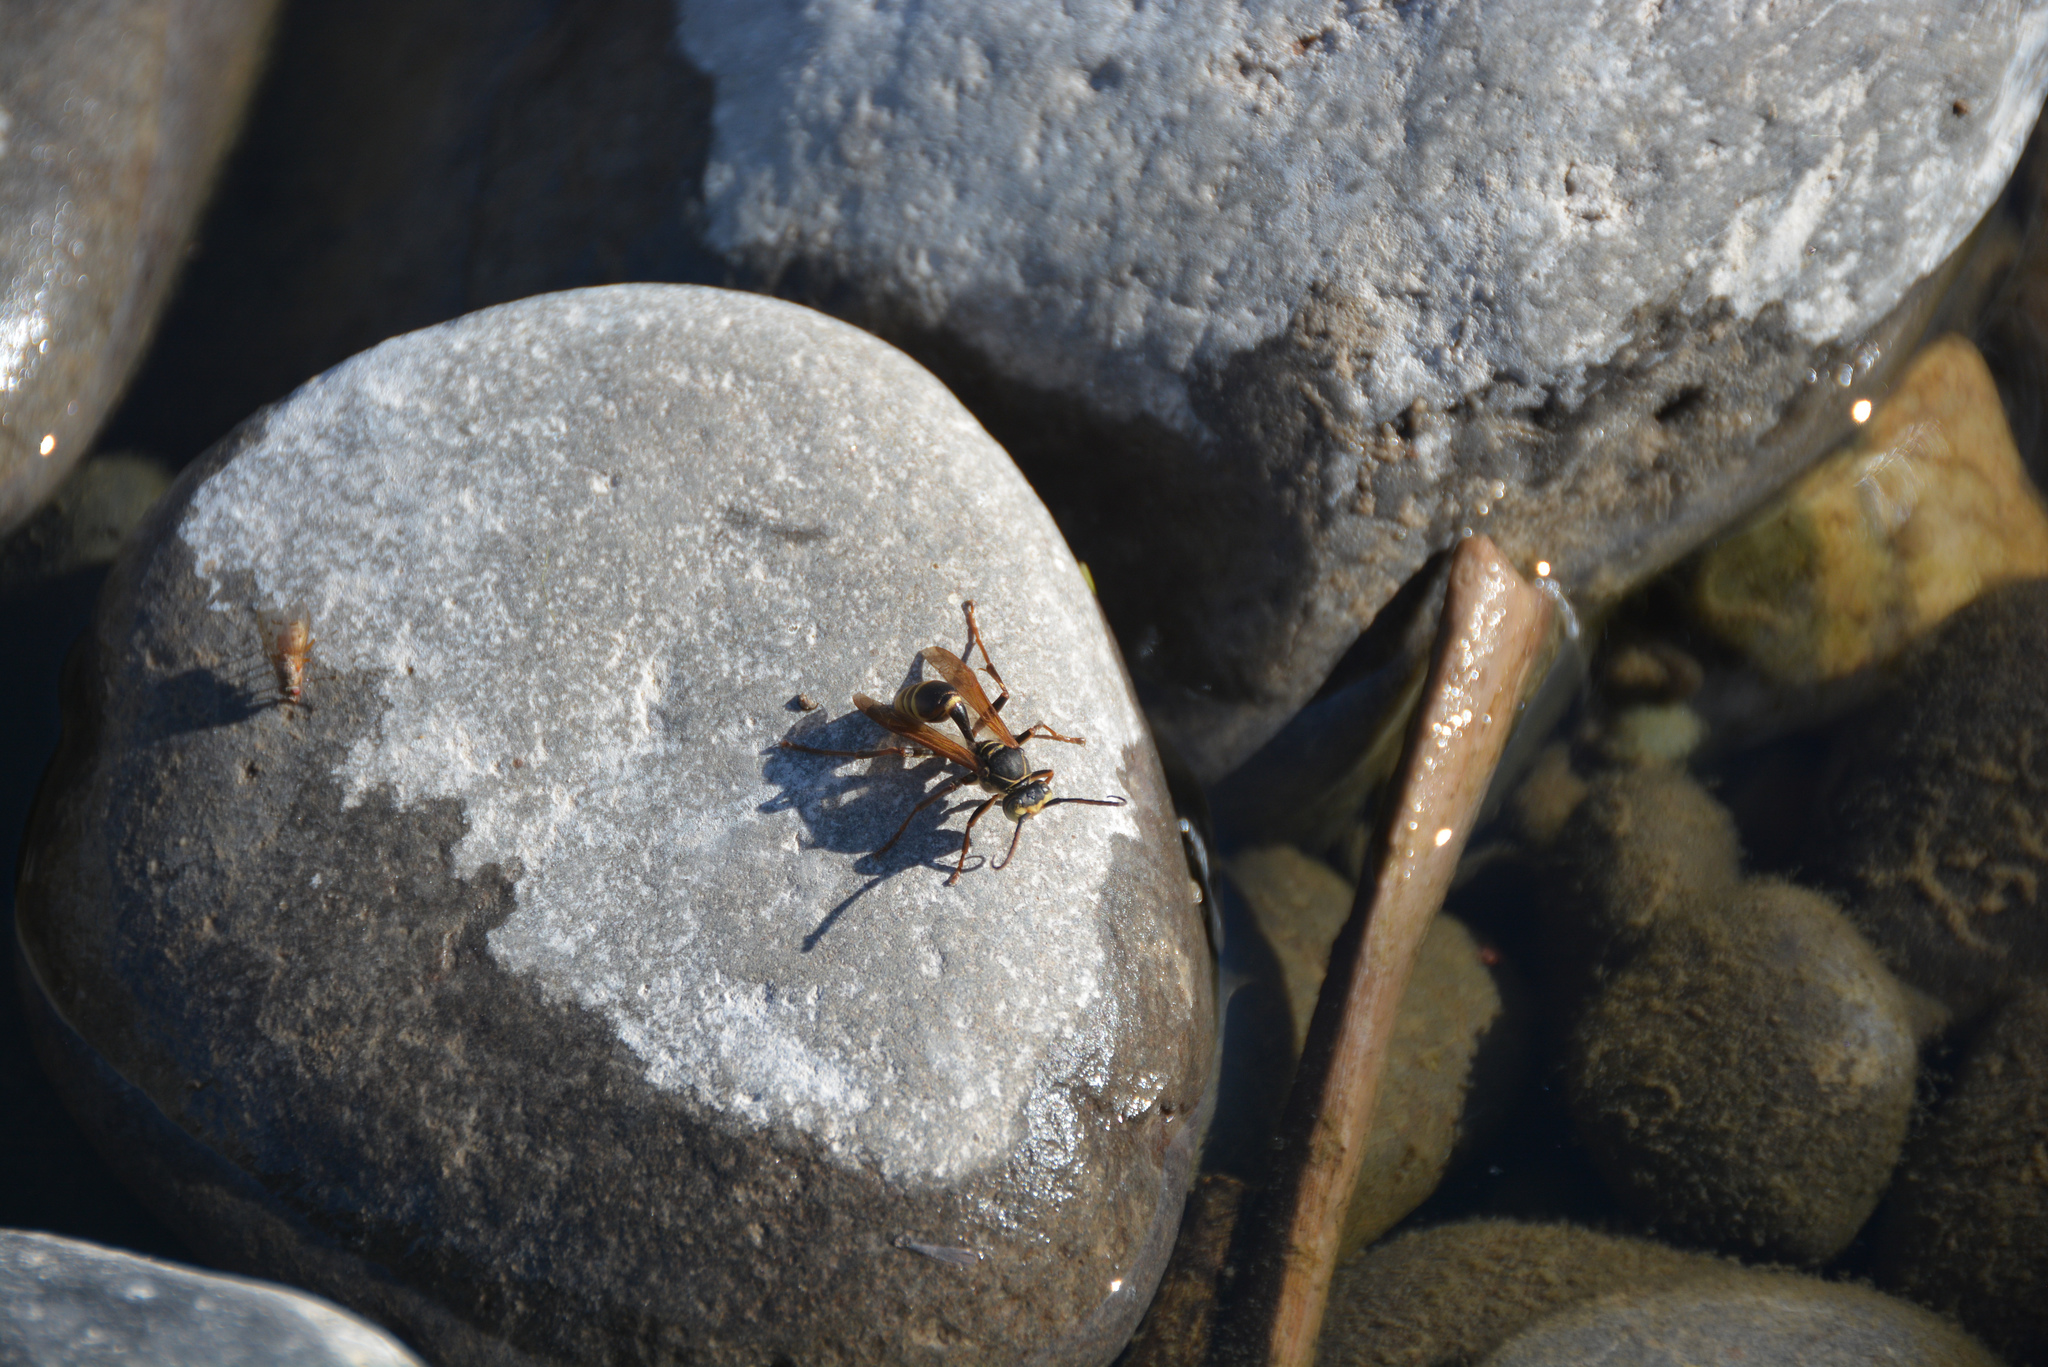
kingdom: Animalia
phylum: Arthropoda
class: Insecta
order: Hymenoptera
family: Vespidae
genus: Mischocyttarus
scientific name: Mischocyttarus flavitarsis
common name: Wasp
